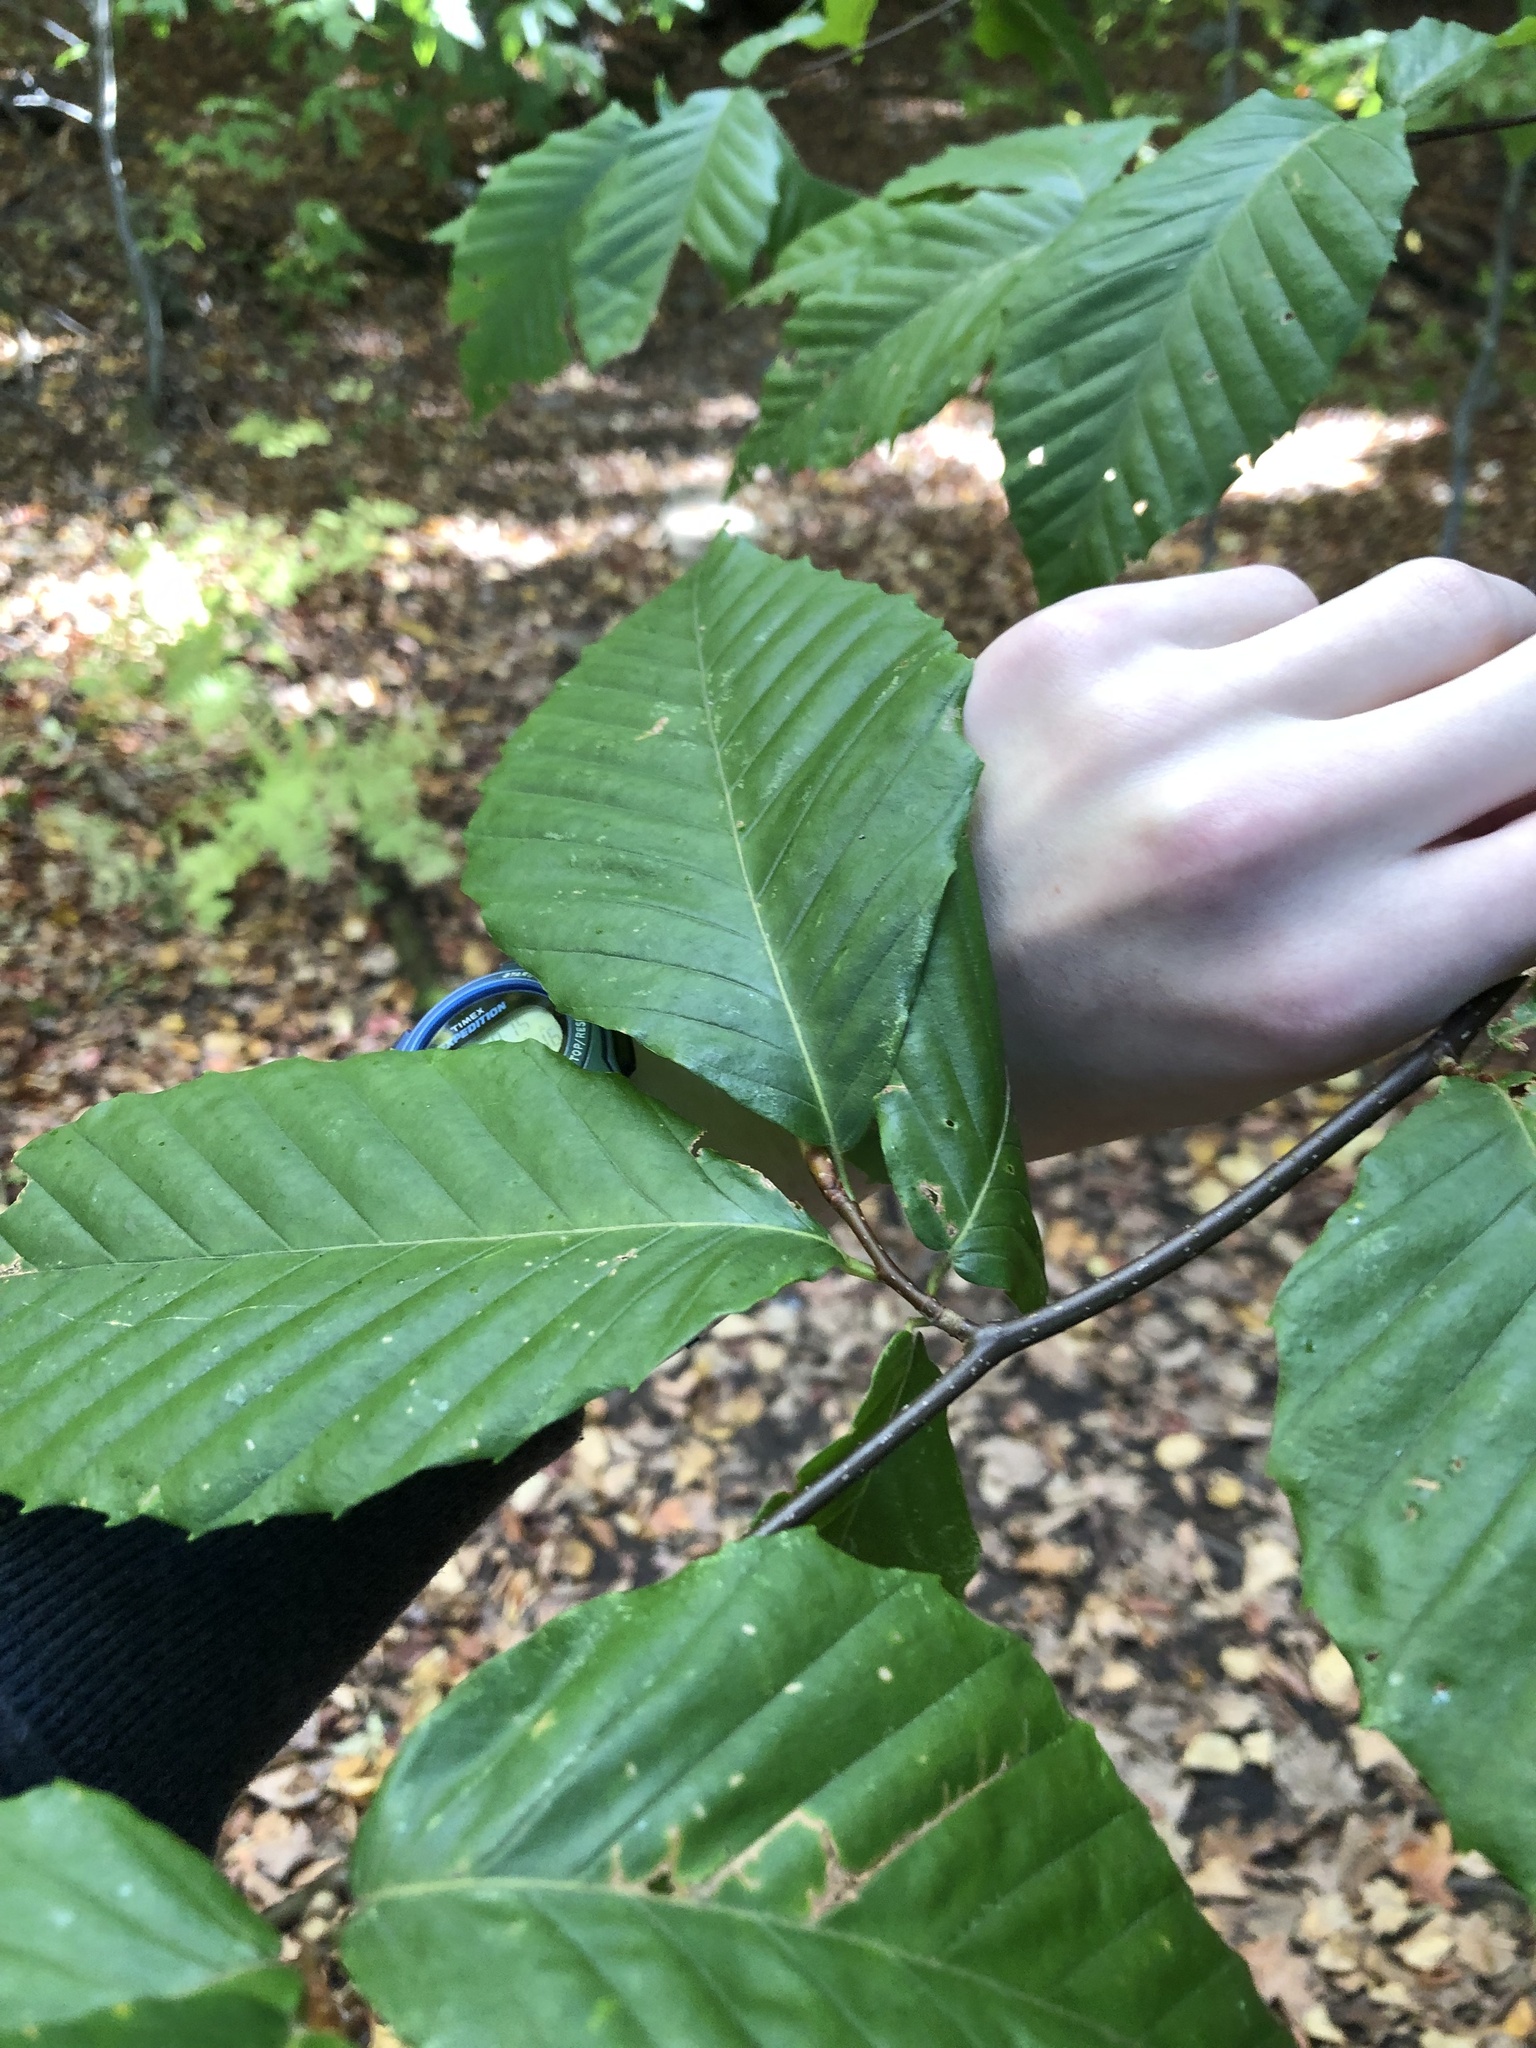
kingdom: Plantae
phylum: Tracheophyta
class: Magnoliopsida
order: Fagales
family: Fagaceae
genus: Fagus
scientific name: Fagus grandifolia
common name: American beech
